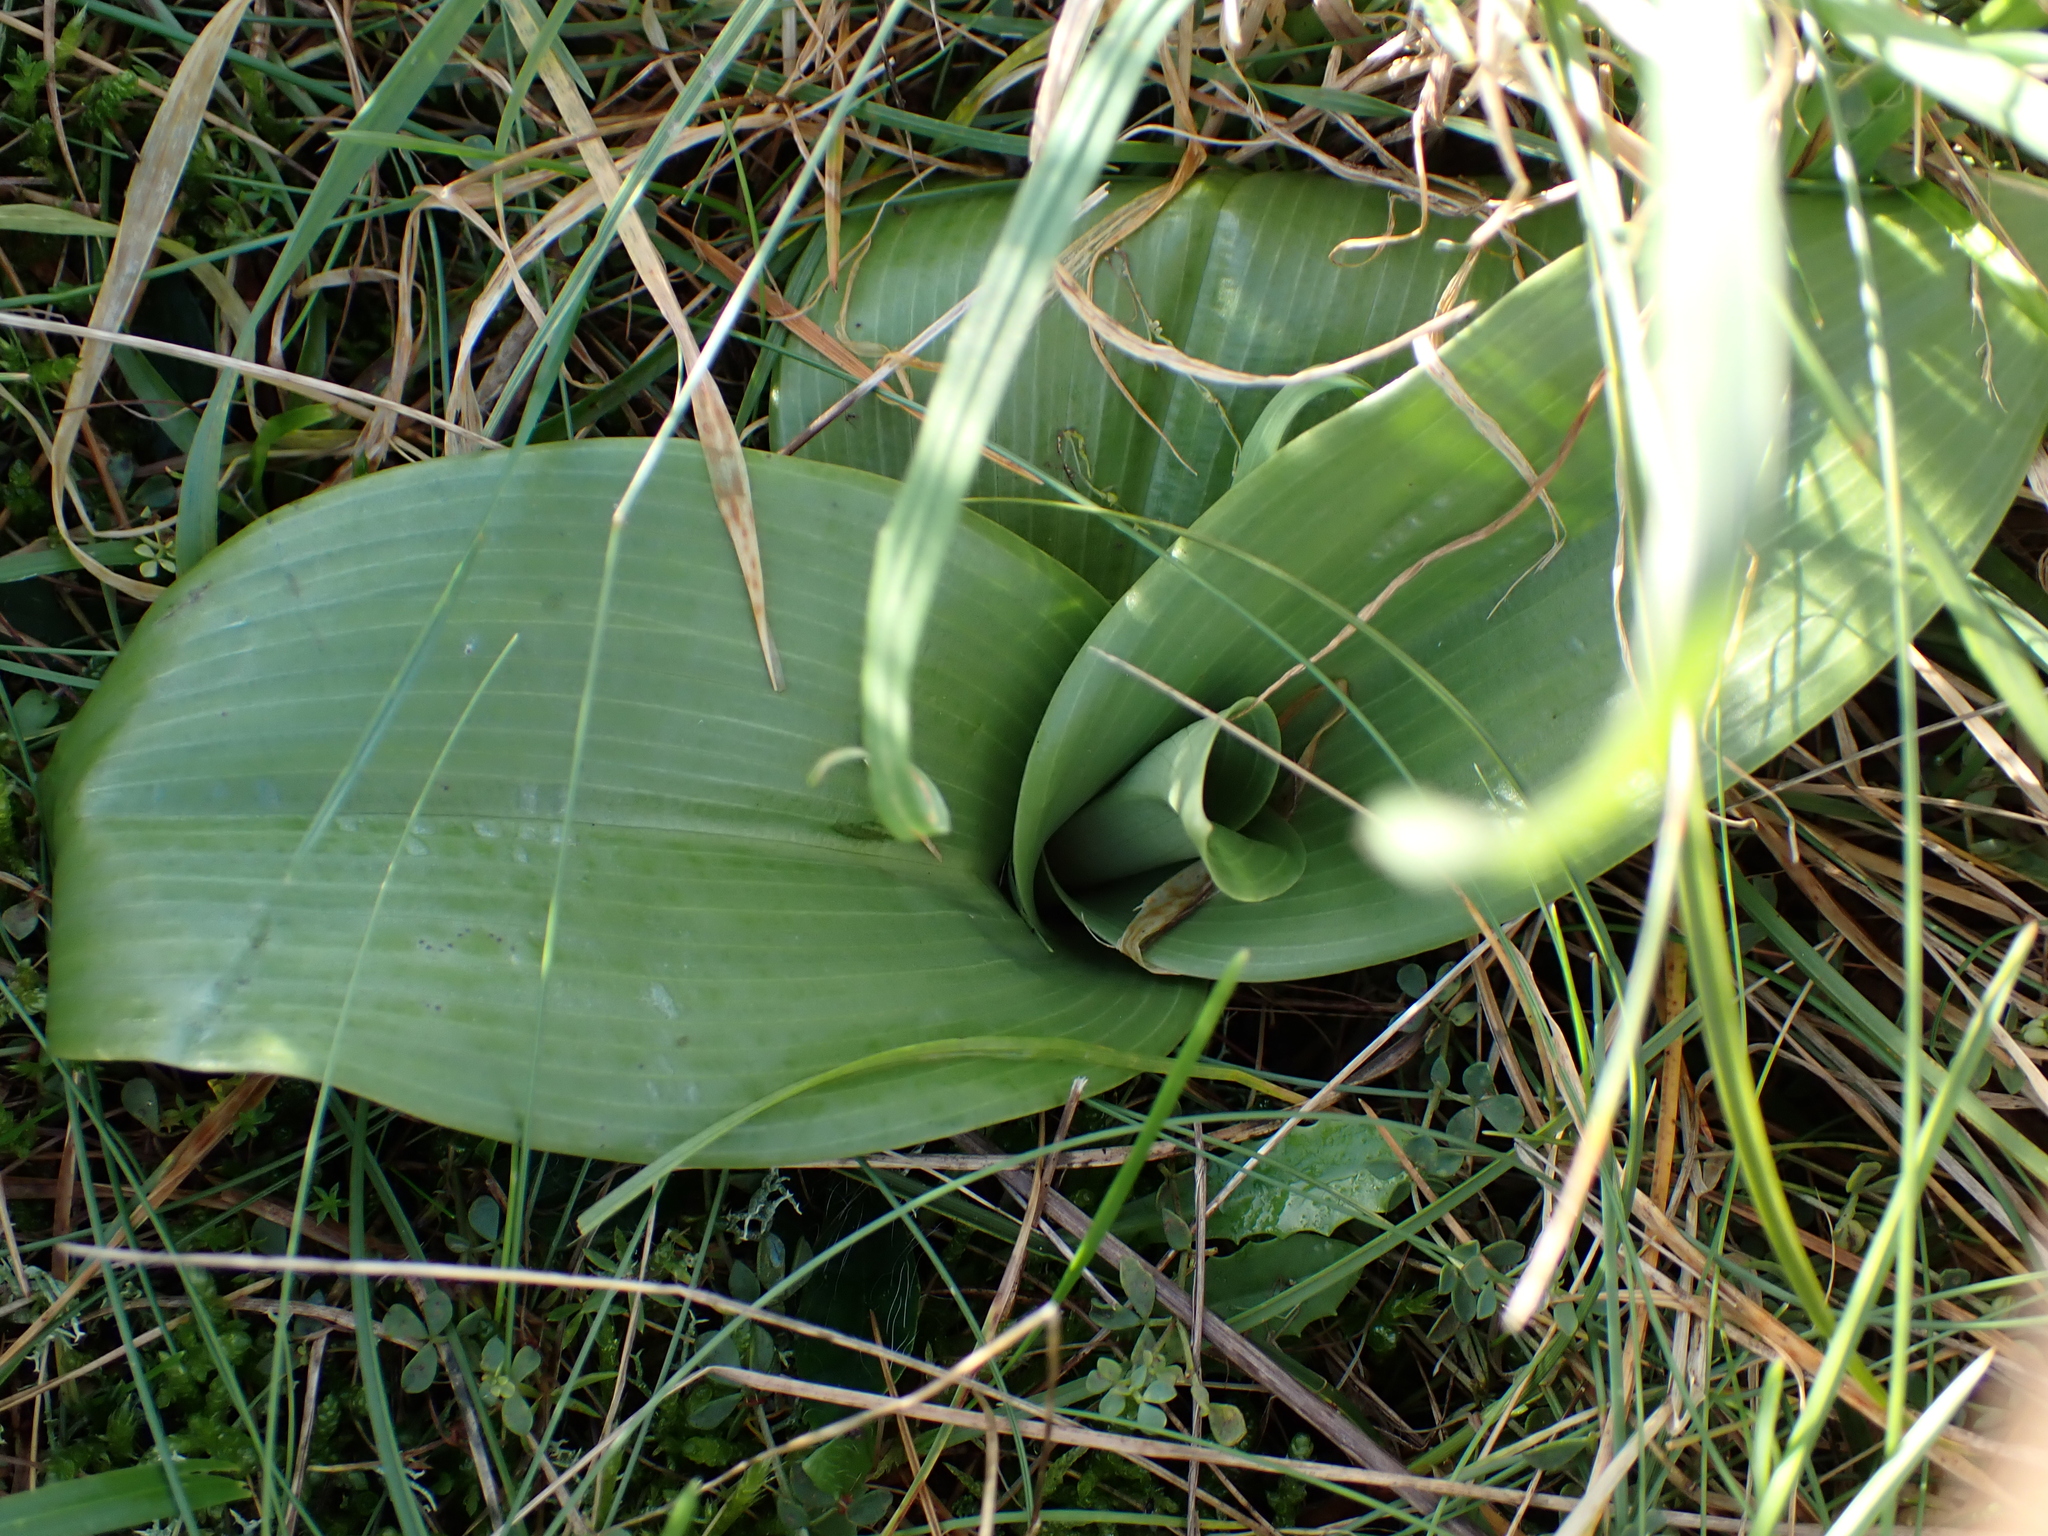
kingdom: Plantae
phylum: Tracheophyta
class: Liliopsida
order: Asparagales
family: Orchidaceae
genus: Himantoglossum
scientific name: Himantoglossum hircinum
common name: Lizard orchid
